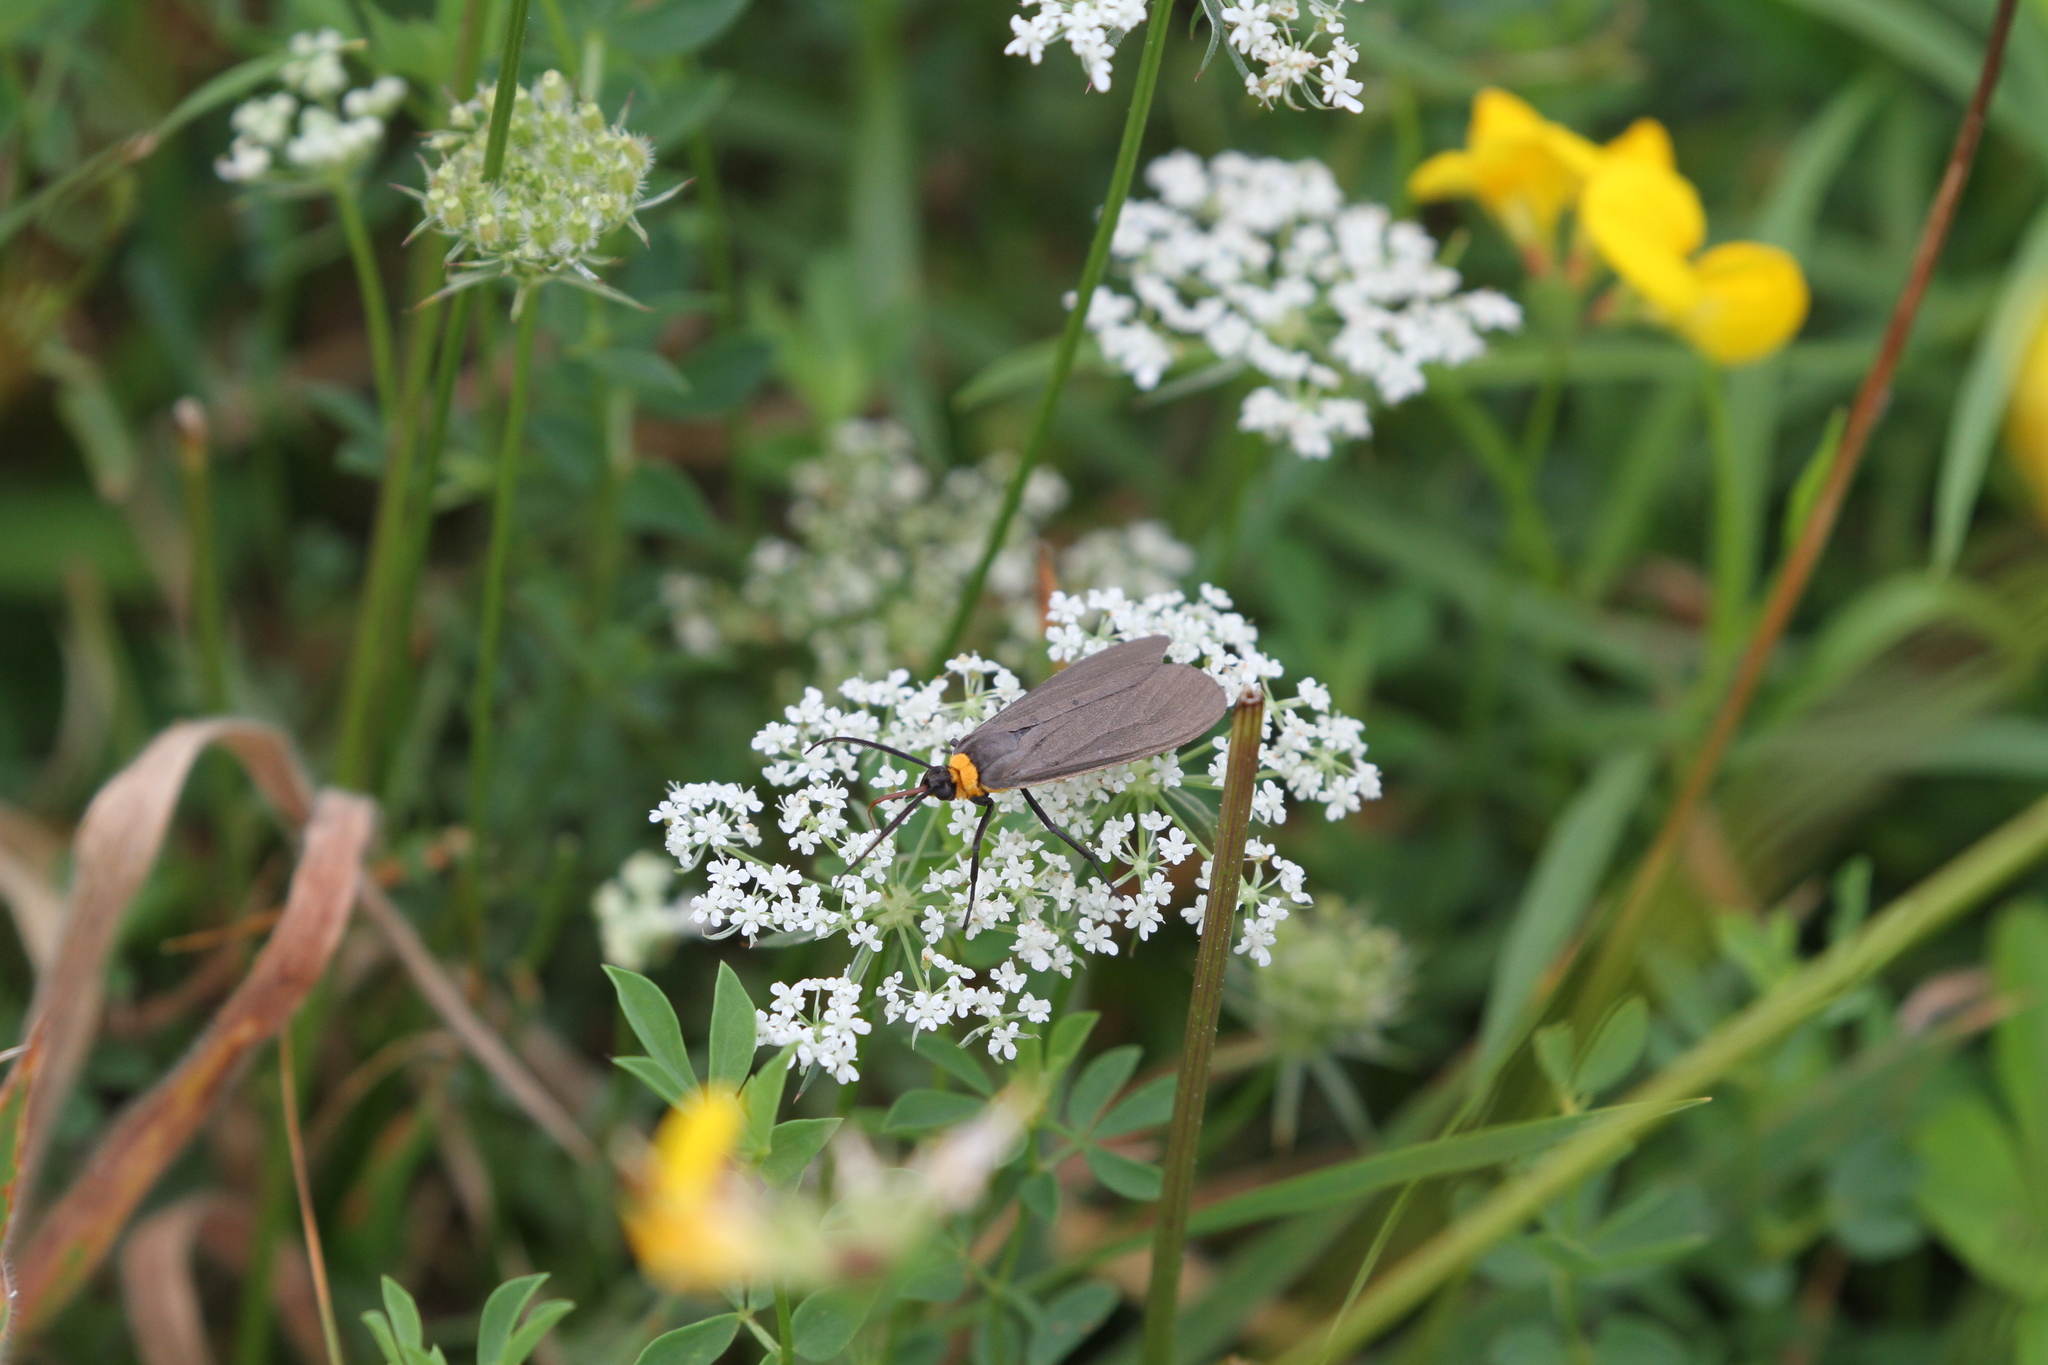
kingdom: Animalia
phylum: Arthropoda
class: Insecta
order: Lepidoptera
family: Erebidae
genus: Cisseps
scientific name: Cisseps fulvicollis
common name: Yellow-collared scape moth
